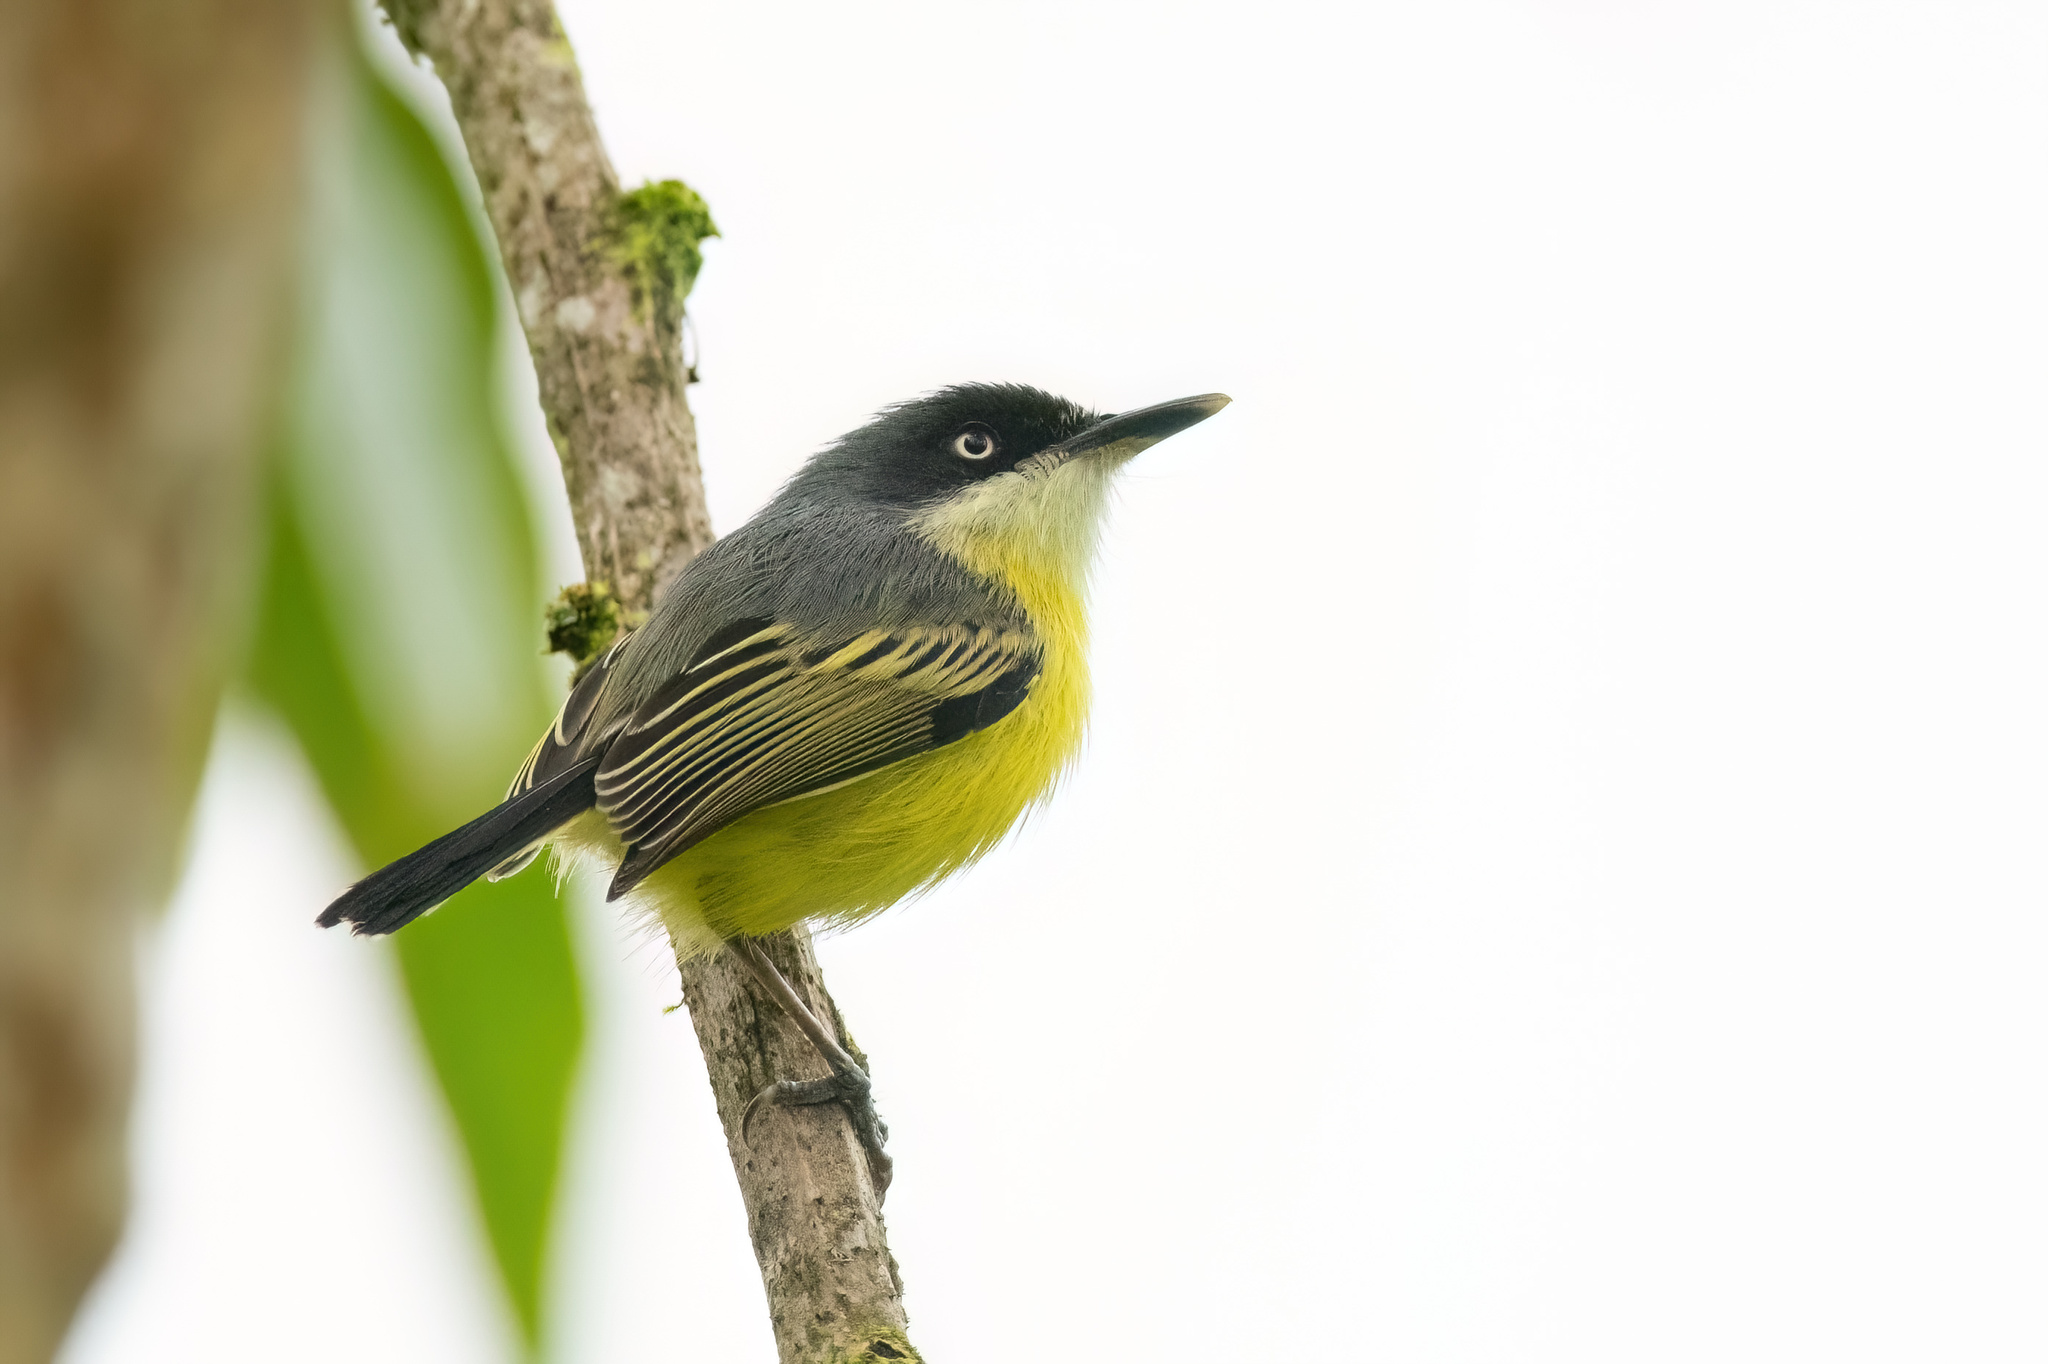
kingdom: Animalia
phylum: Chordata
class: Aves
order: Passeriformes
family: Tyrannidae
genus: Todirostrum
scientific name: Todirostrum cinereum
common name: Common tody-flycatcher
